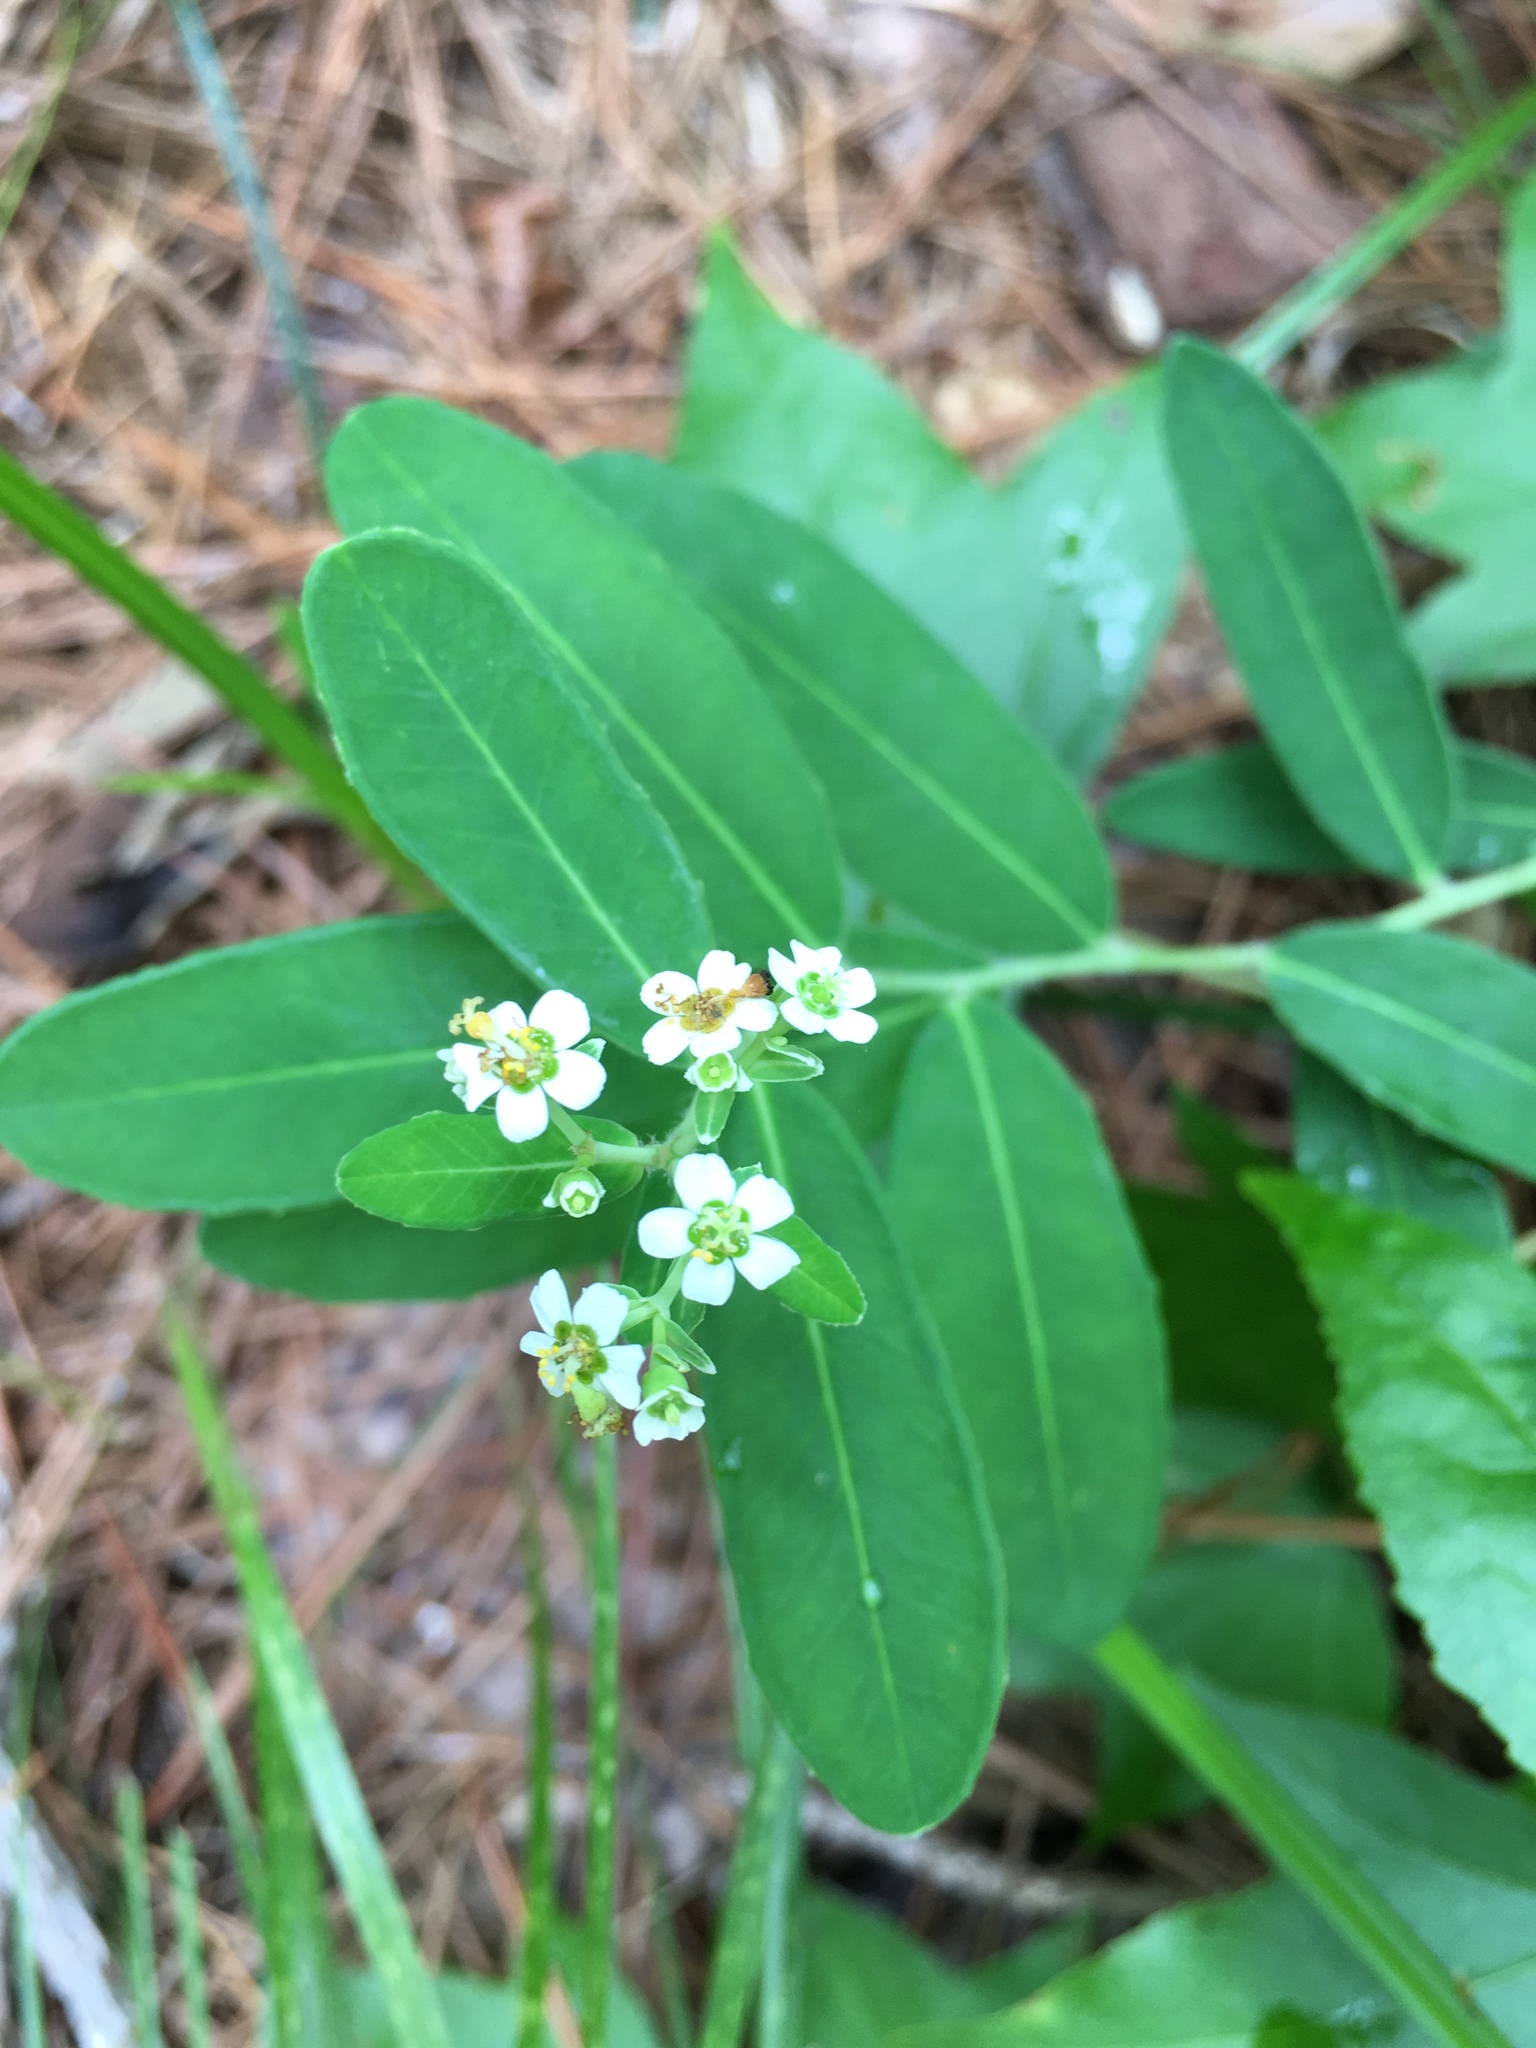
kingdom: Plantae
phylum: Tracheophyta
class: Magnoliopsida
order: Malpighiales
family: Euphorbiaceae
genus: Euphorbia
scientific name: Euphorbia corollata
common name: Flowering spurge
